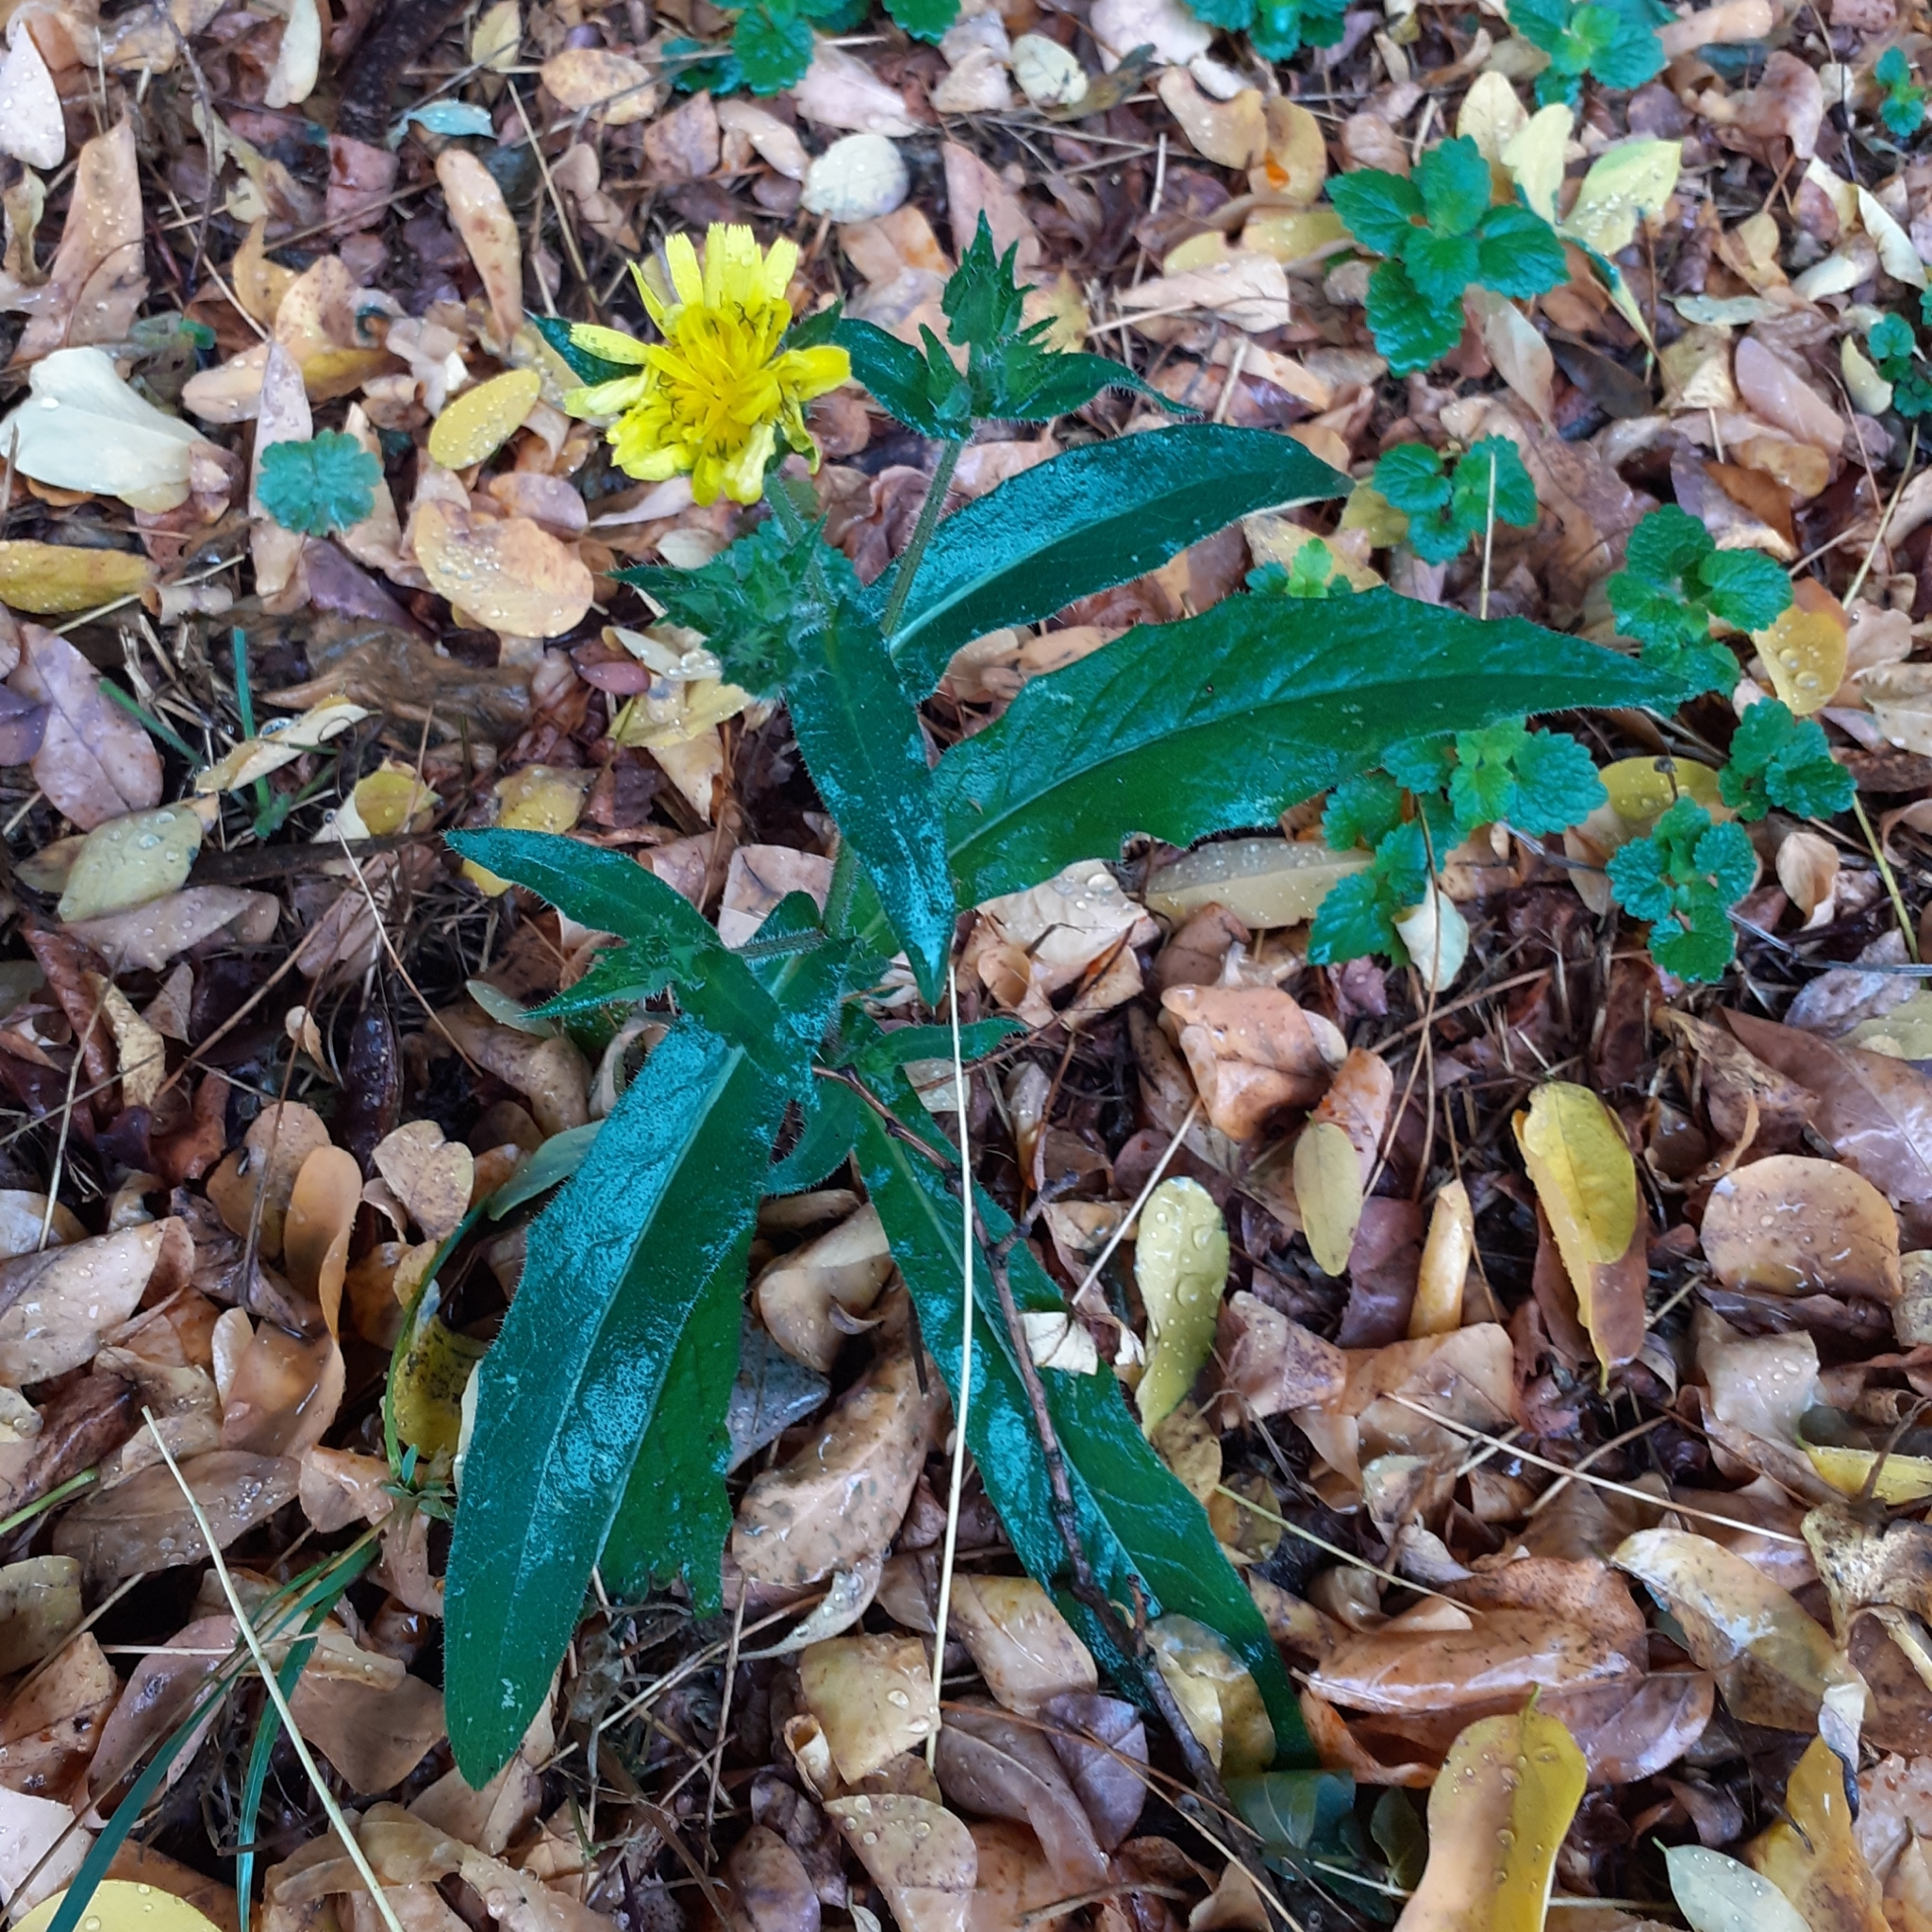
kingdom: Plantae
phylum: Tracheophyta
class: Magnoliopsida
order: Asterales
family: Asteraceae
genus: Helminthotheca
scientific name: Helminthotheca echioides
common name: Ox-tongue
